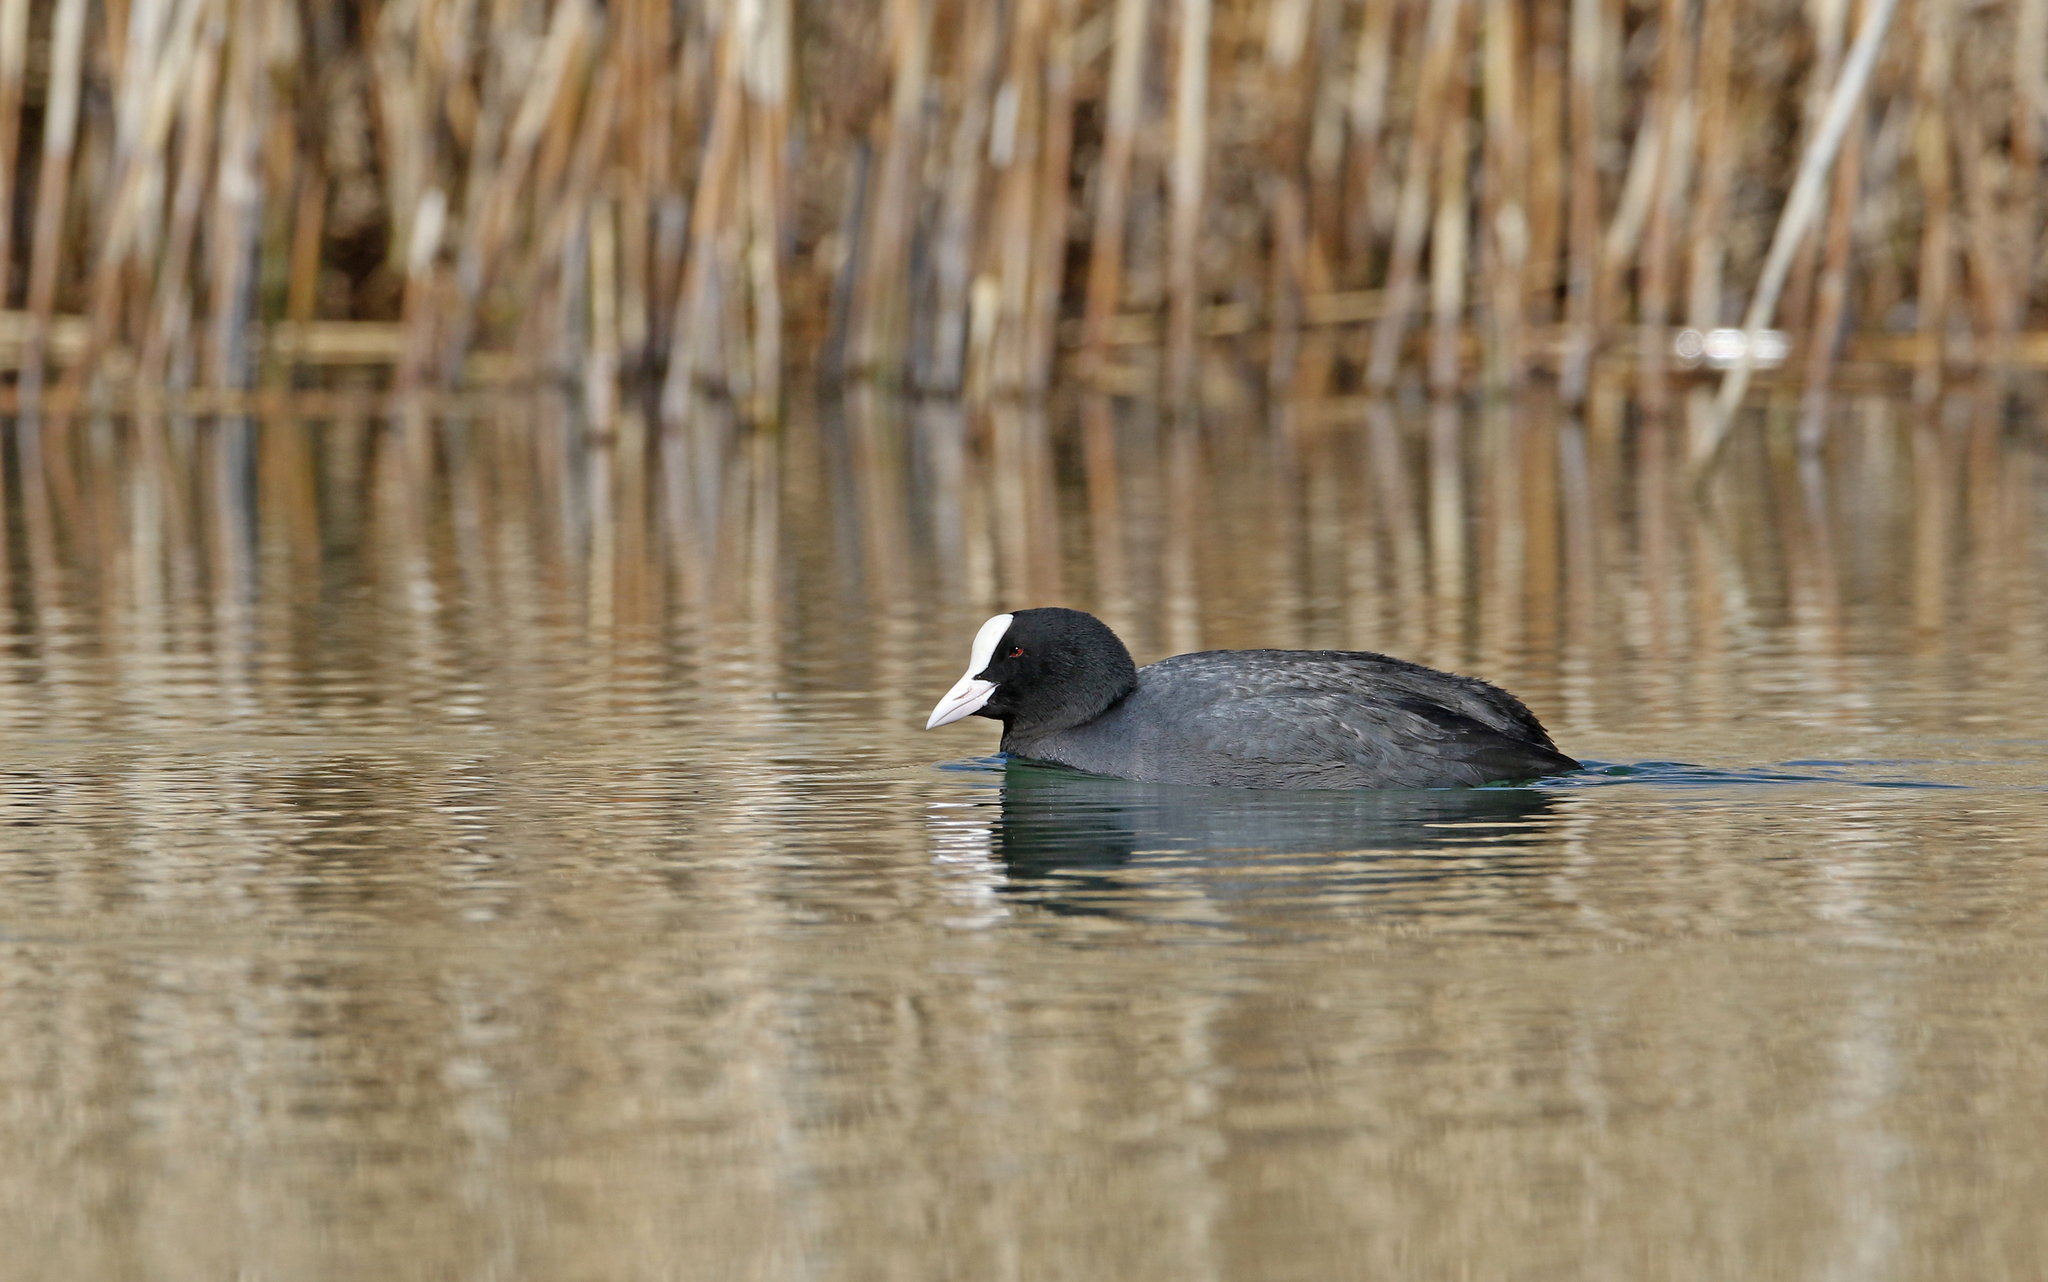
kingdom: Animalia
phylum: Chordata
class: Aves
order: Gruiformes
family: Rallidae
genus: Fulica
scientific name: Fulica atra
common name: Eurasian coot
